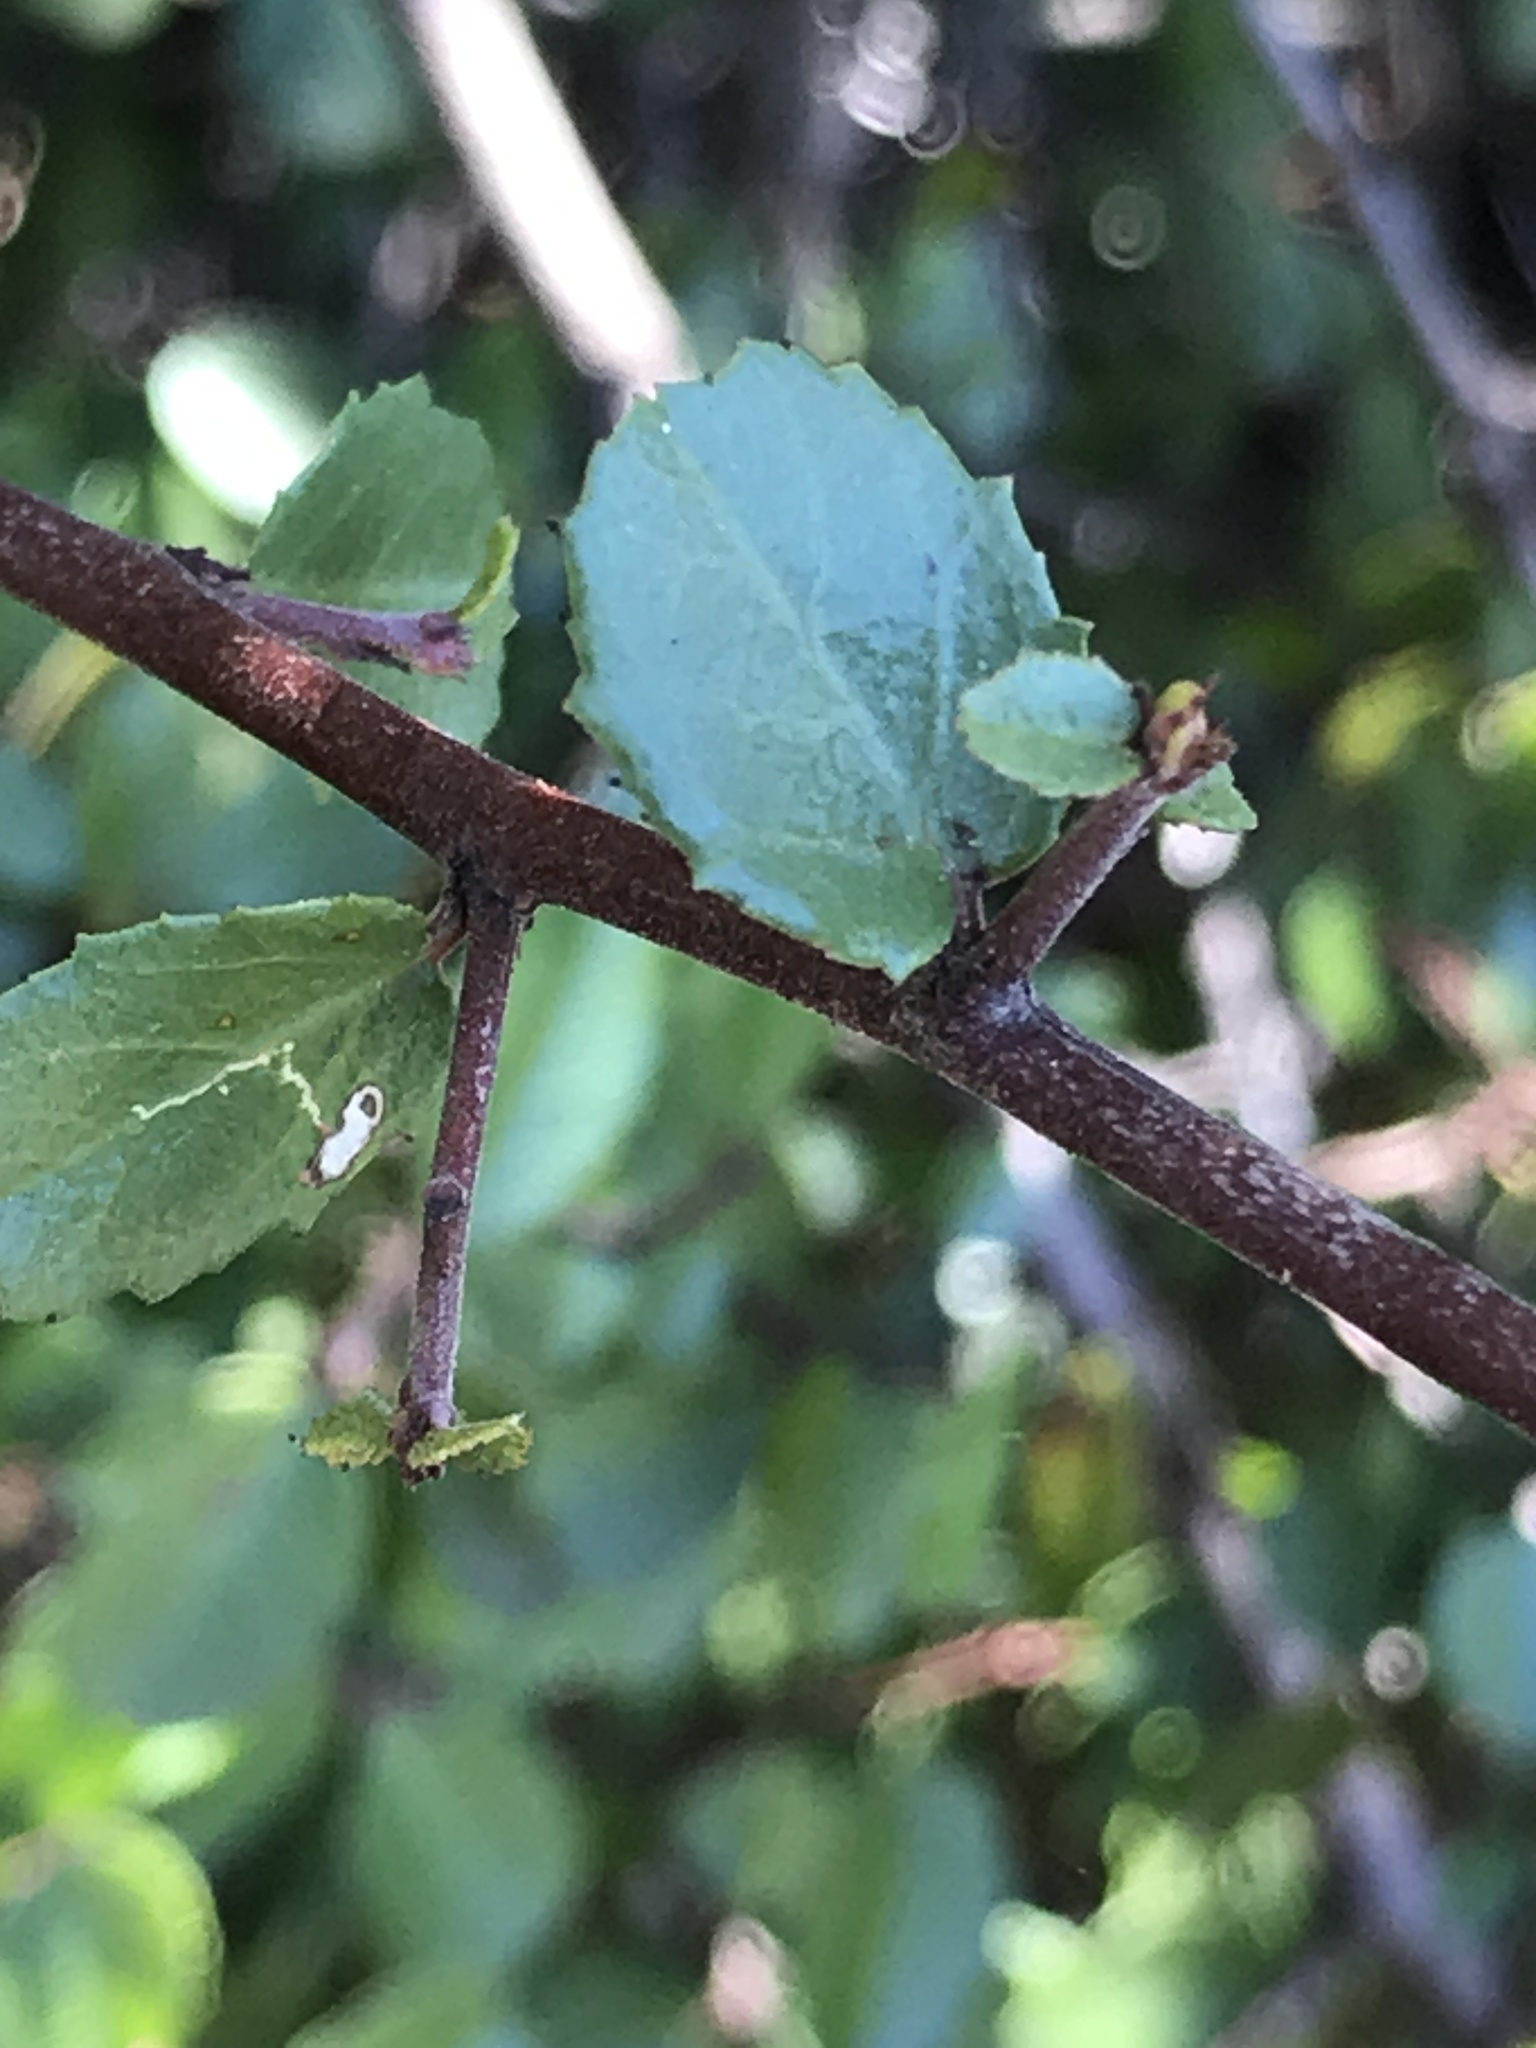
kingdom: Plantae
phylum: Tracheophyta
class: Magnoliopsida
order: Rosales
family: Rhamnaceae
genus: Endotropis
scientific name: Endotropis crocea
